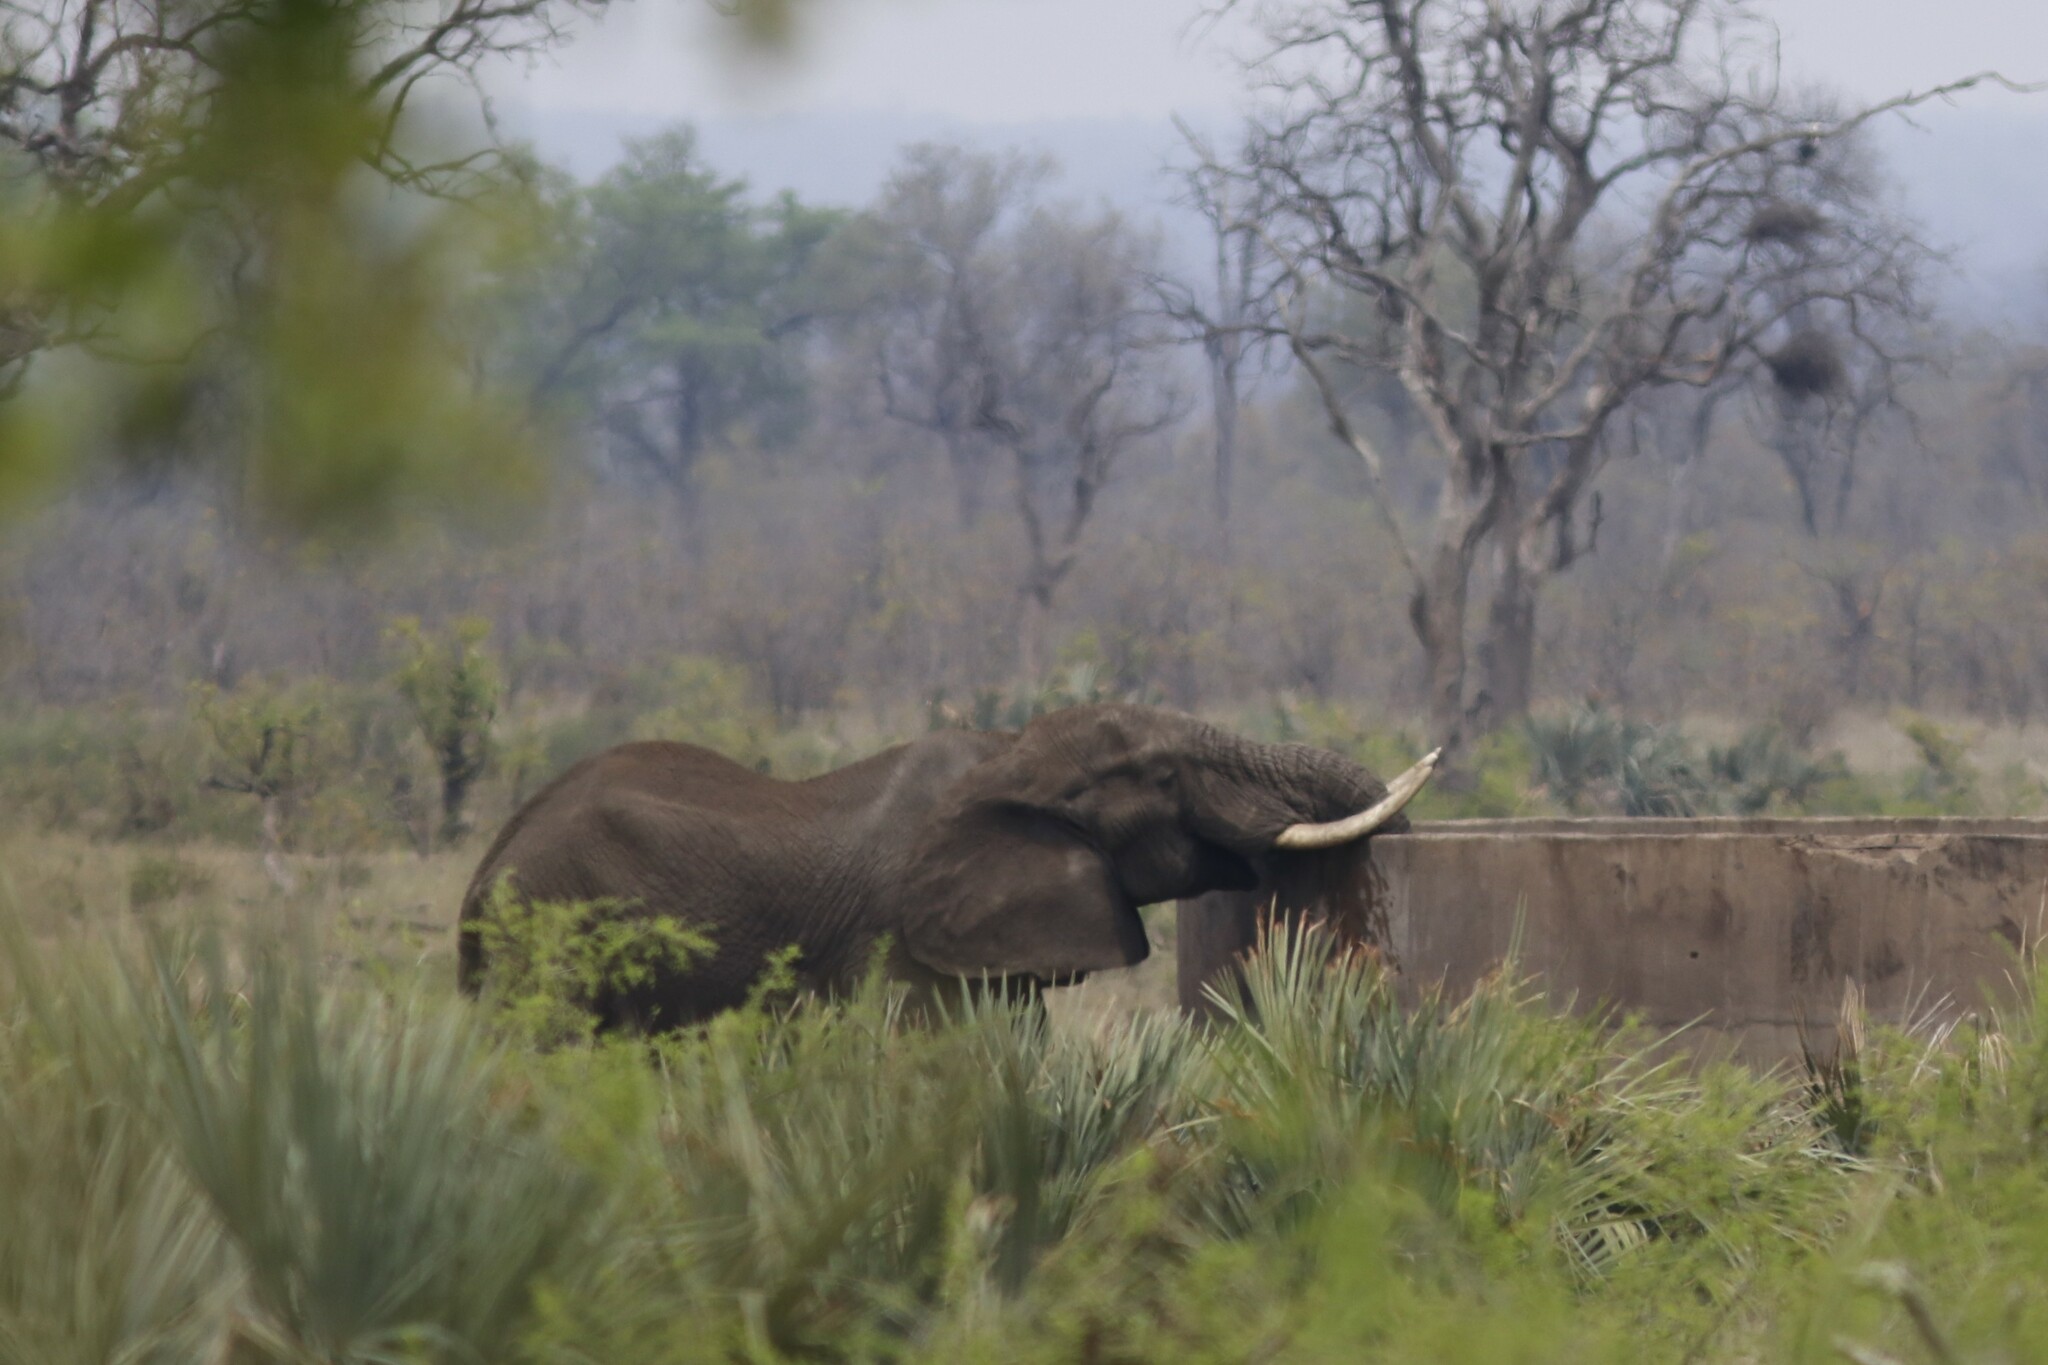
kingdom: Animalia
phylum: Chordata
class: Mammalia
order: Proboscidea
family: Elephantidae
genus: Loxodonta
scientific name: Loxodonta africana
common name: African elephant
